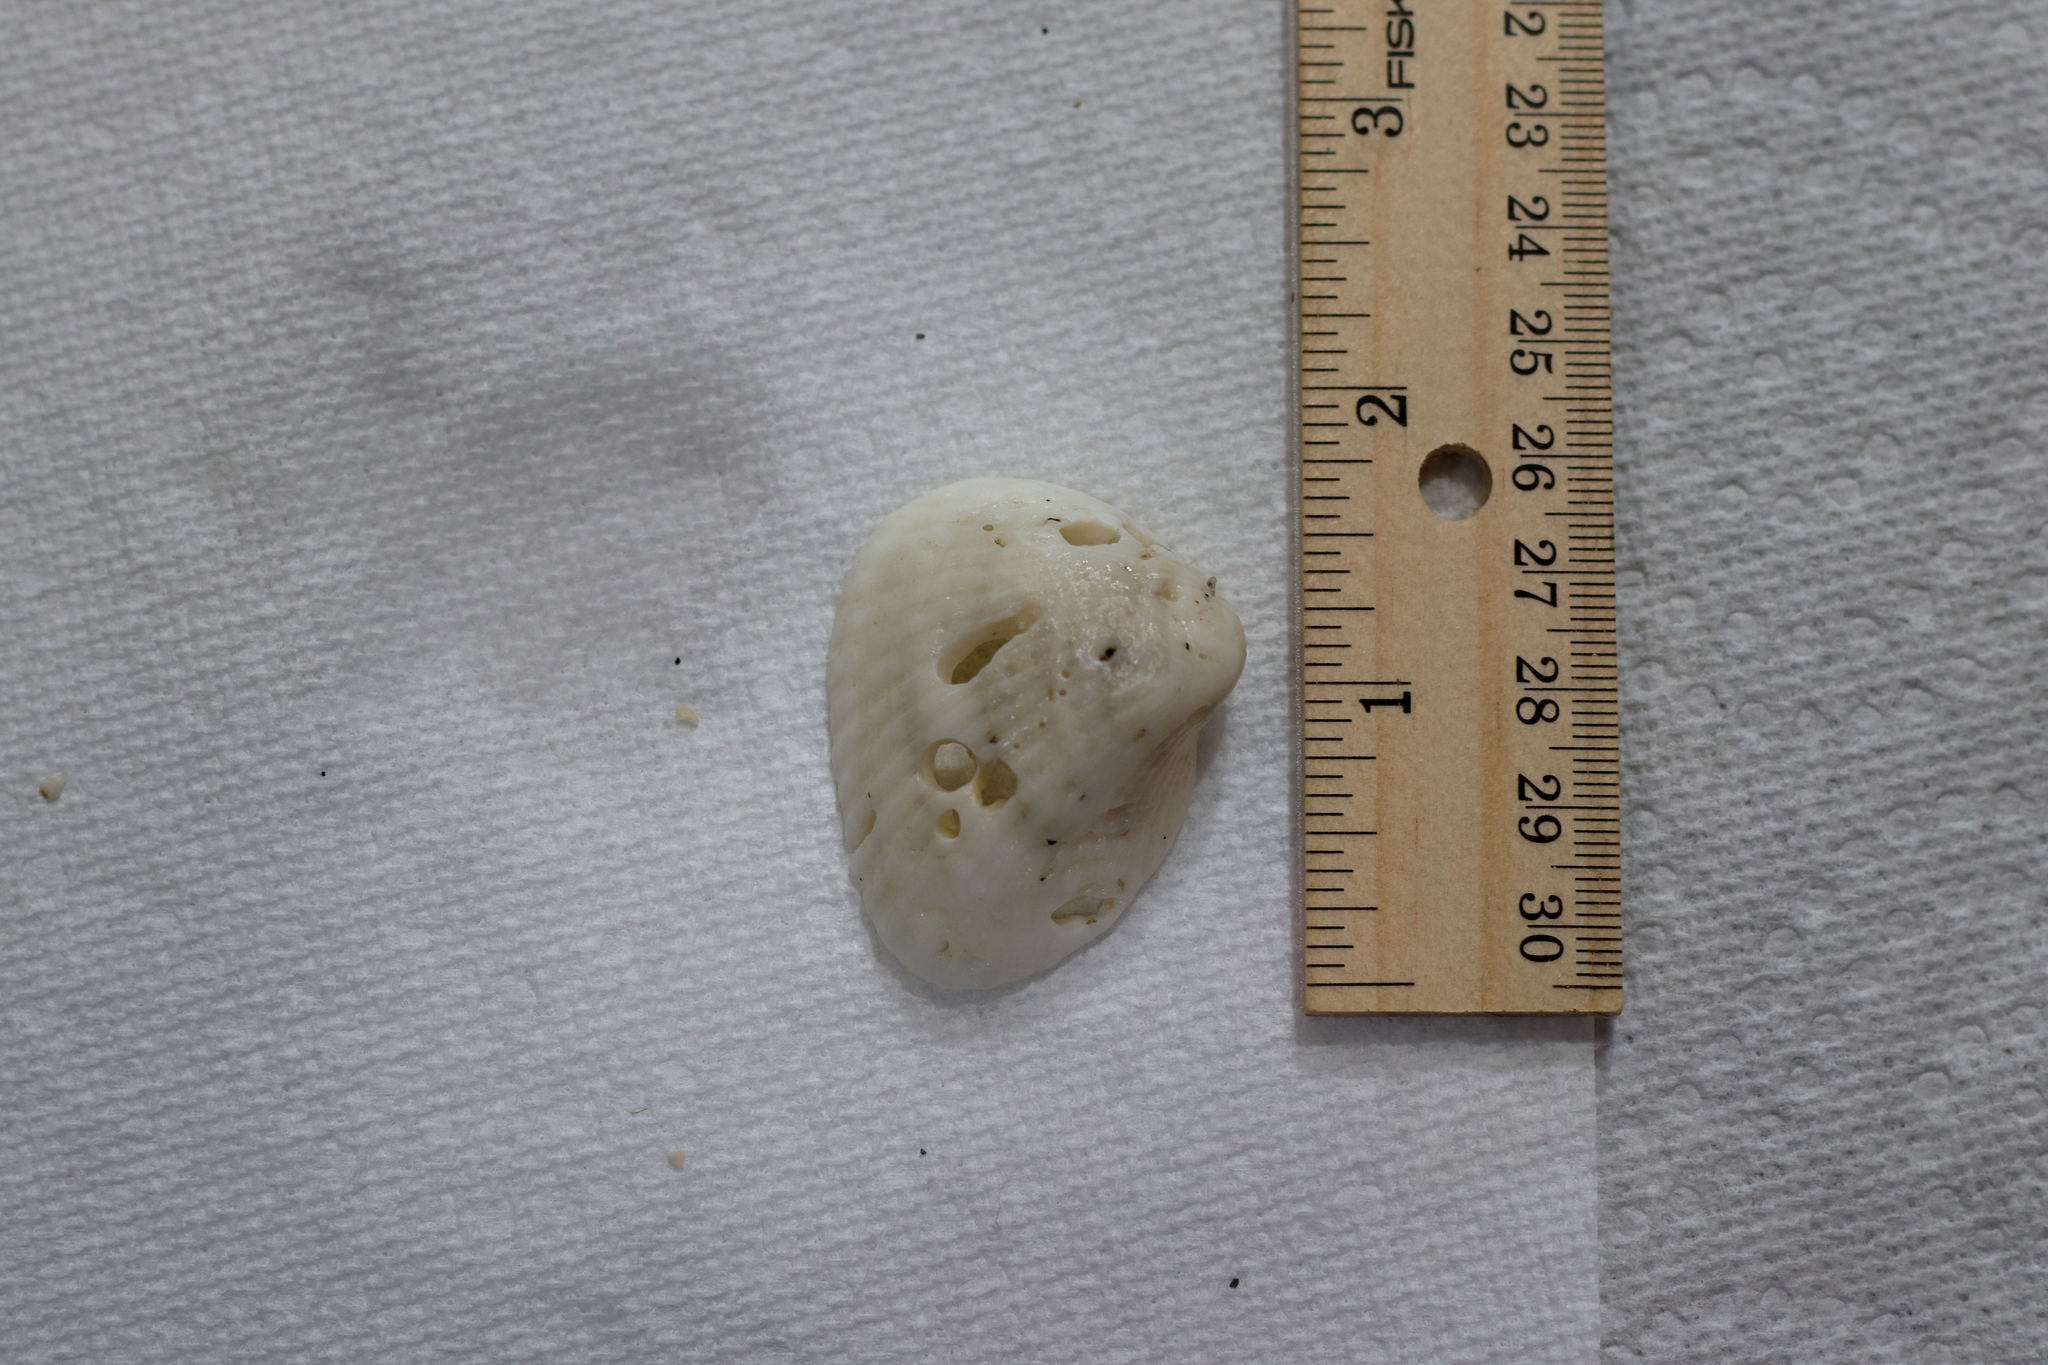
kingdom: Animalia
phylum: Mollusca
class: Bivalvia
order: Arcida
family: Noetiidae
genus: Noetia
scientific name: Noetia ponderosa
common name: Ponderous ark
